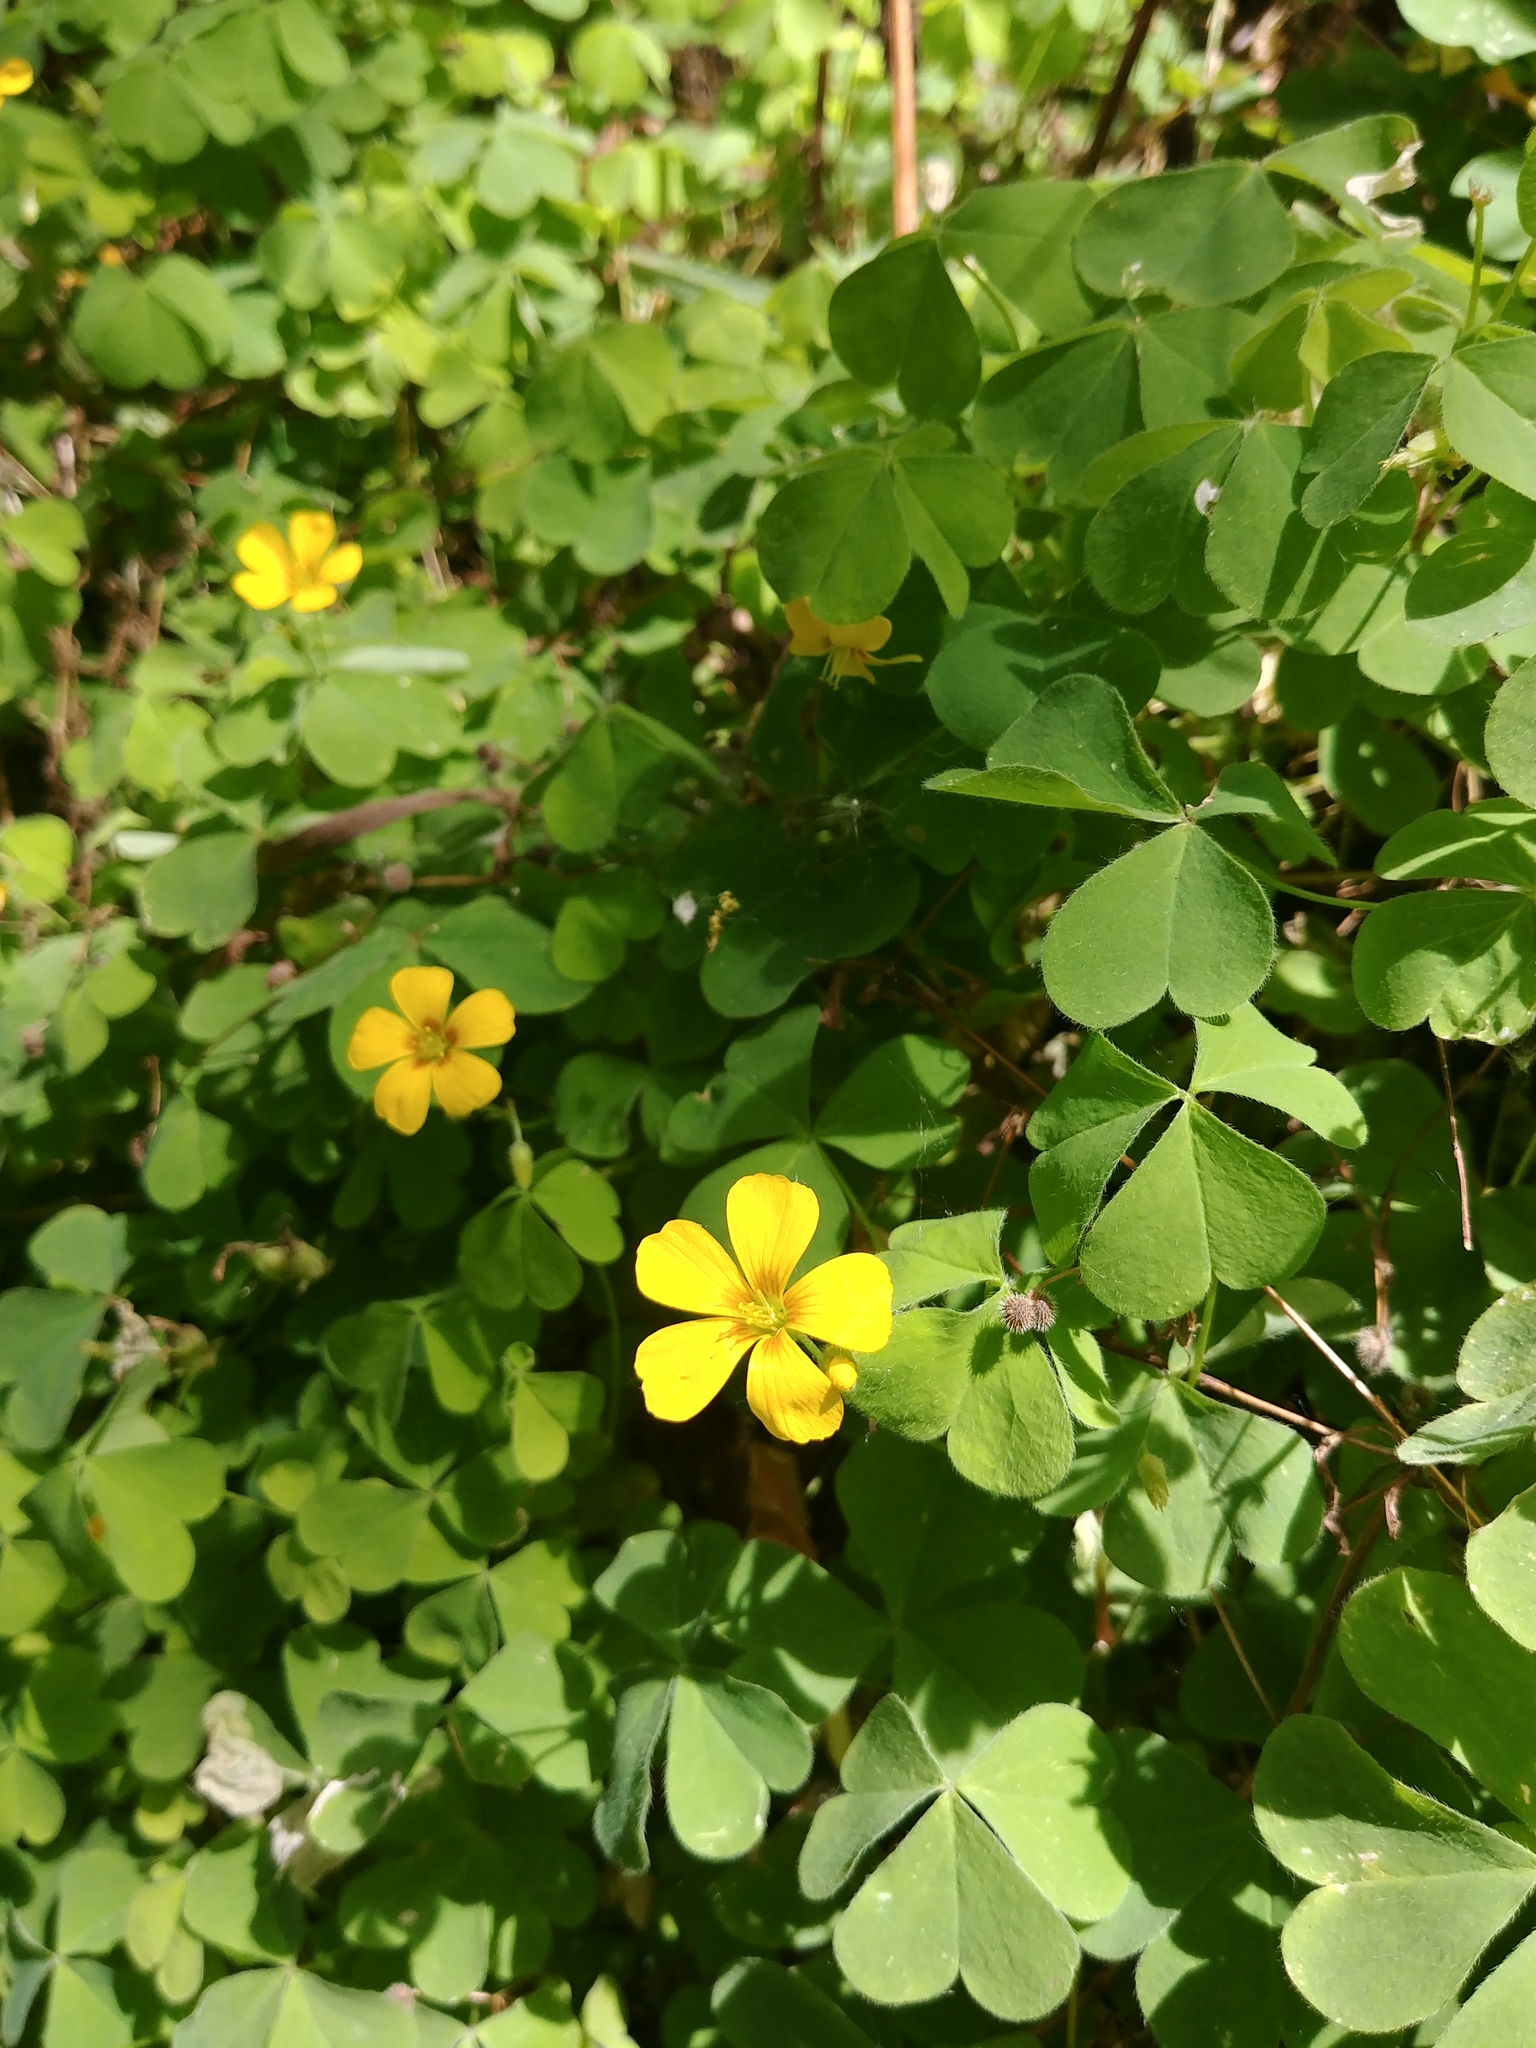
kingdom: Plantae
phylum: Tracheophyta
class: Magnoliopsida
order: Oxalidales
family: Oxalidaceae
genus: Oxalis
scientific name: Oxalis corniculata
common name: Procumbent yellow-sorrel
